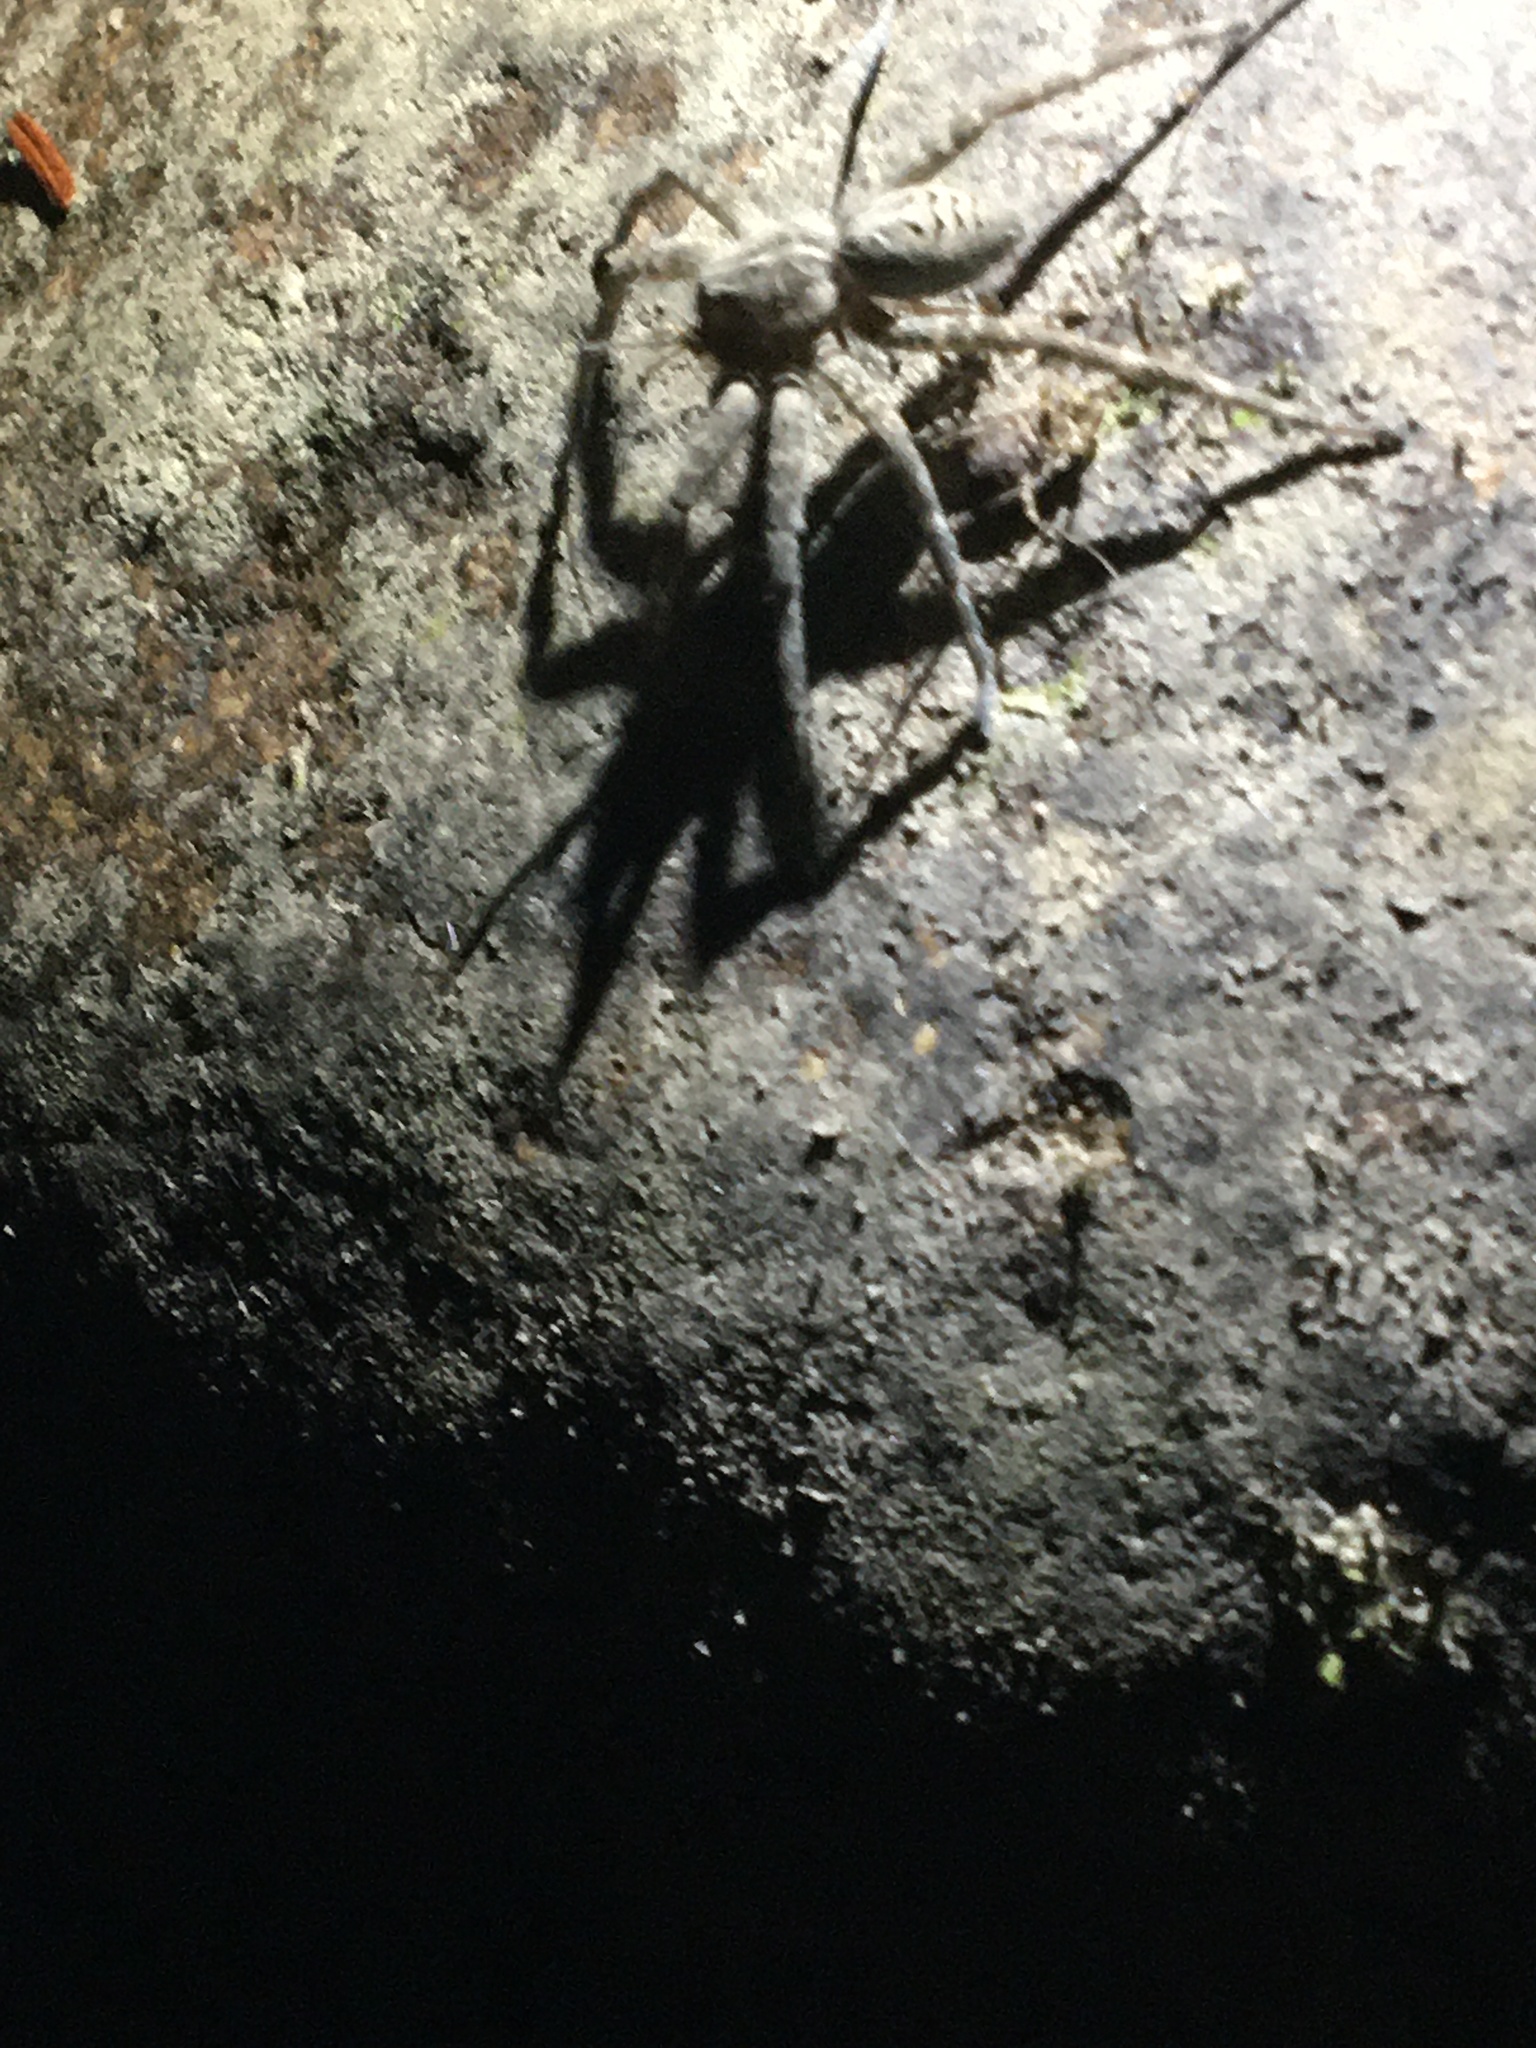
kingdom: Animalia
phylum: Arthropoda
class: Arachnida
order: Araneae
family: Pisauridae
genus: Dolomedes
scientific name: Dolomedes scriptus
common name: Striped fishing spider
